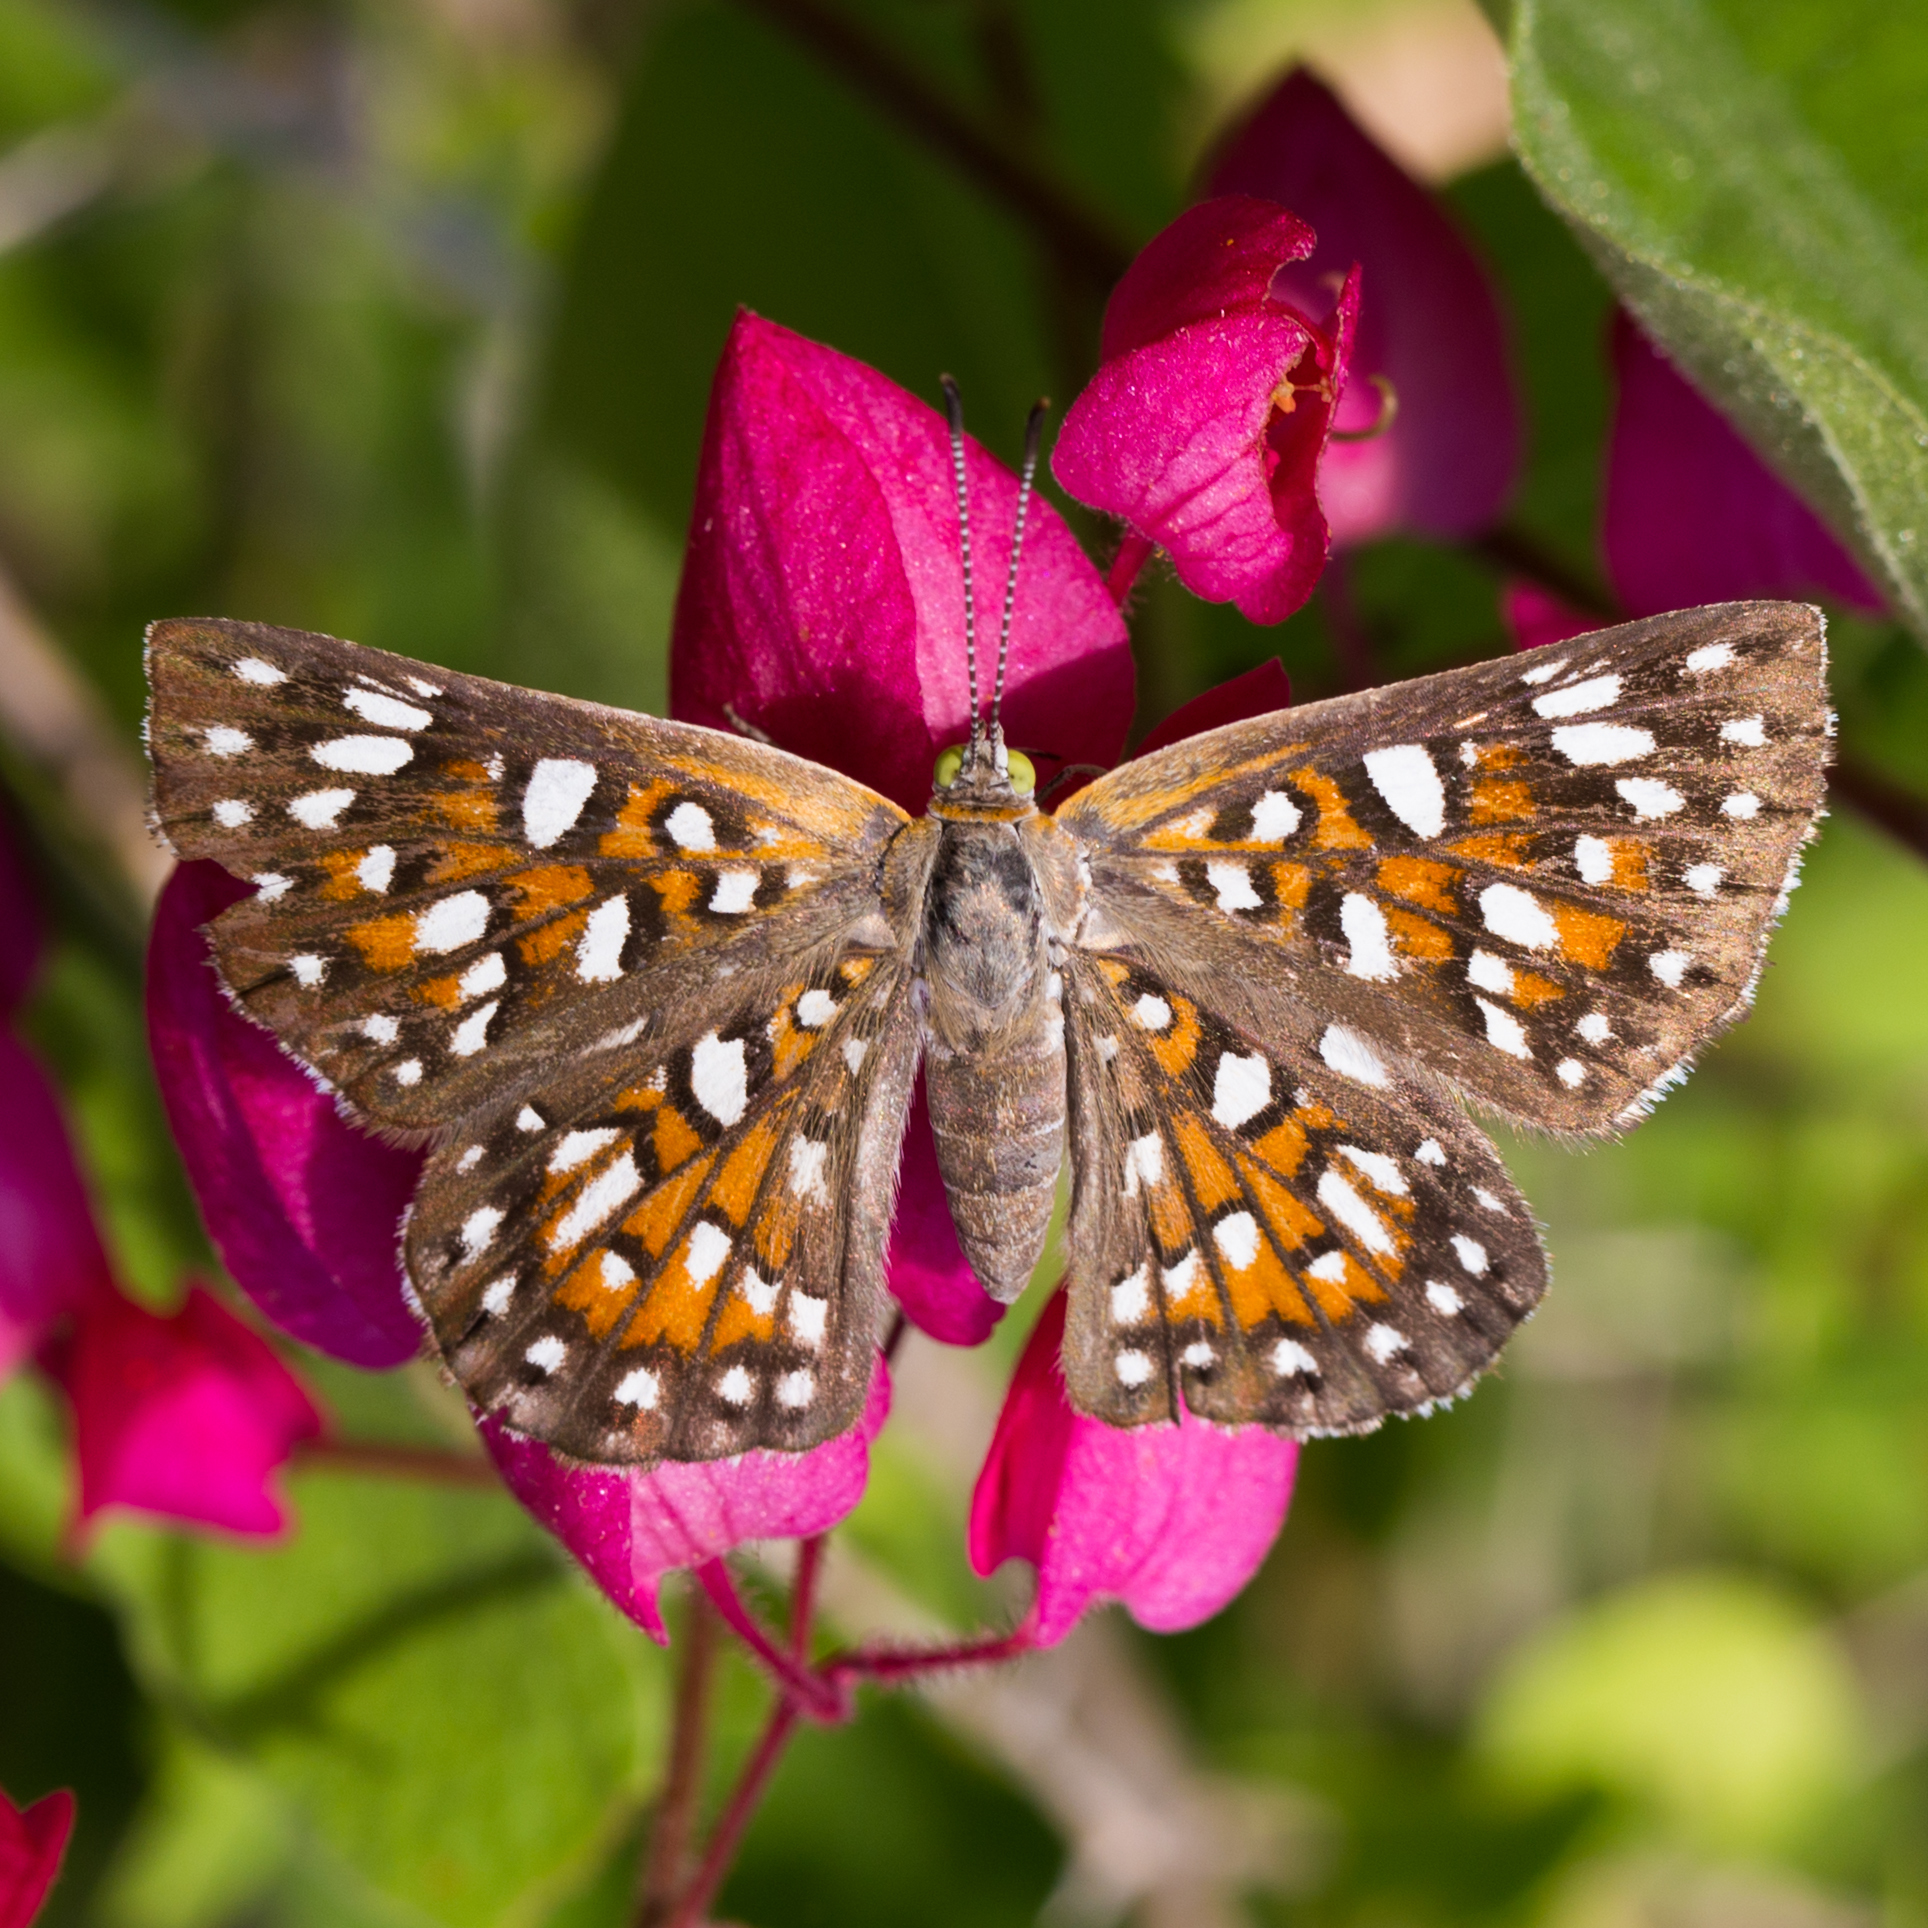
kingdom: Animalia
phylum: Arthropoda
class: Insecta
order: Lepidoptera
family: Riodinidae
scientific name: Riodinidae
